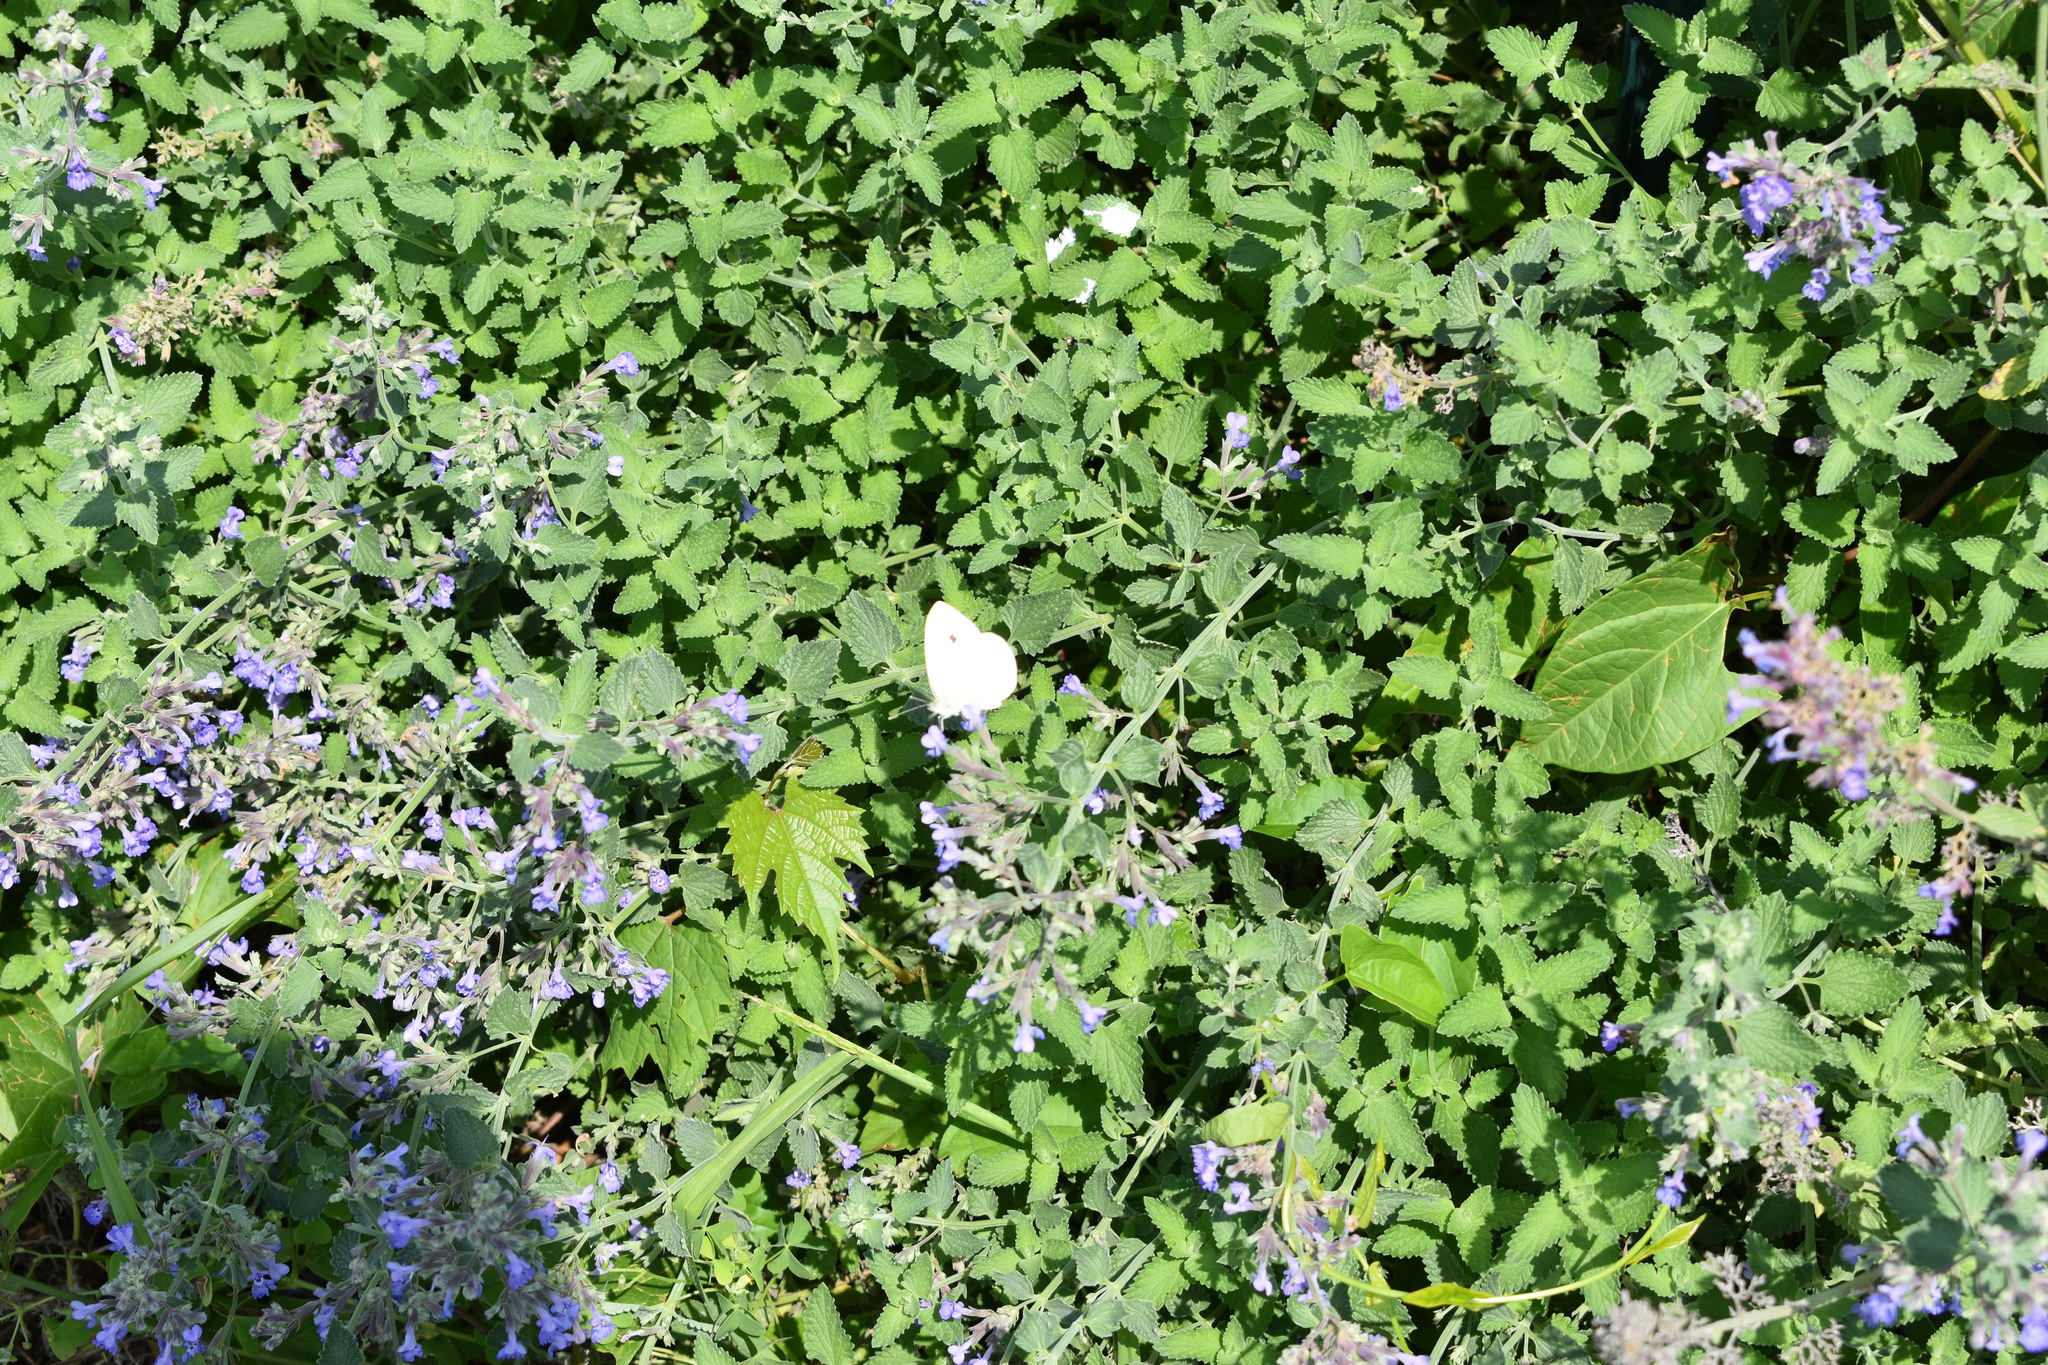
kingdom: Animalia
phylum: Arthropoda
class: Insecta
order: Lepidoptera
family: Pieridae
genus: Pieris
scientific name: Pieris rapae
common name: Small white
